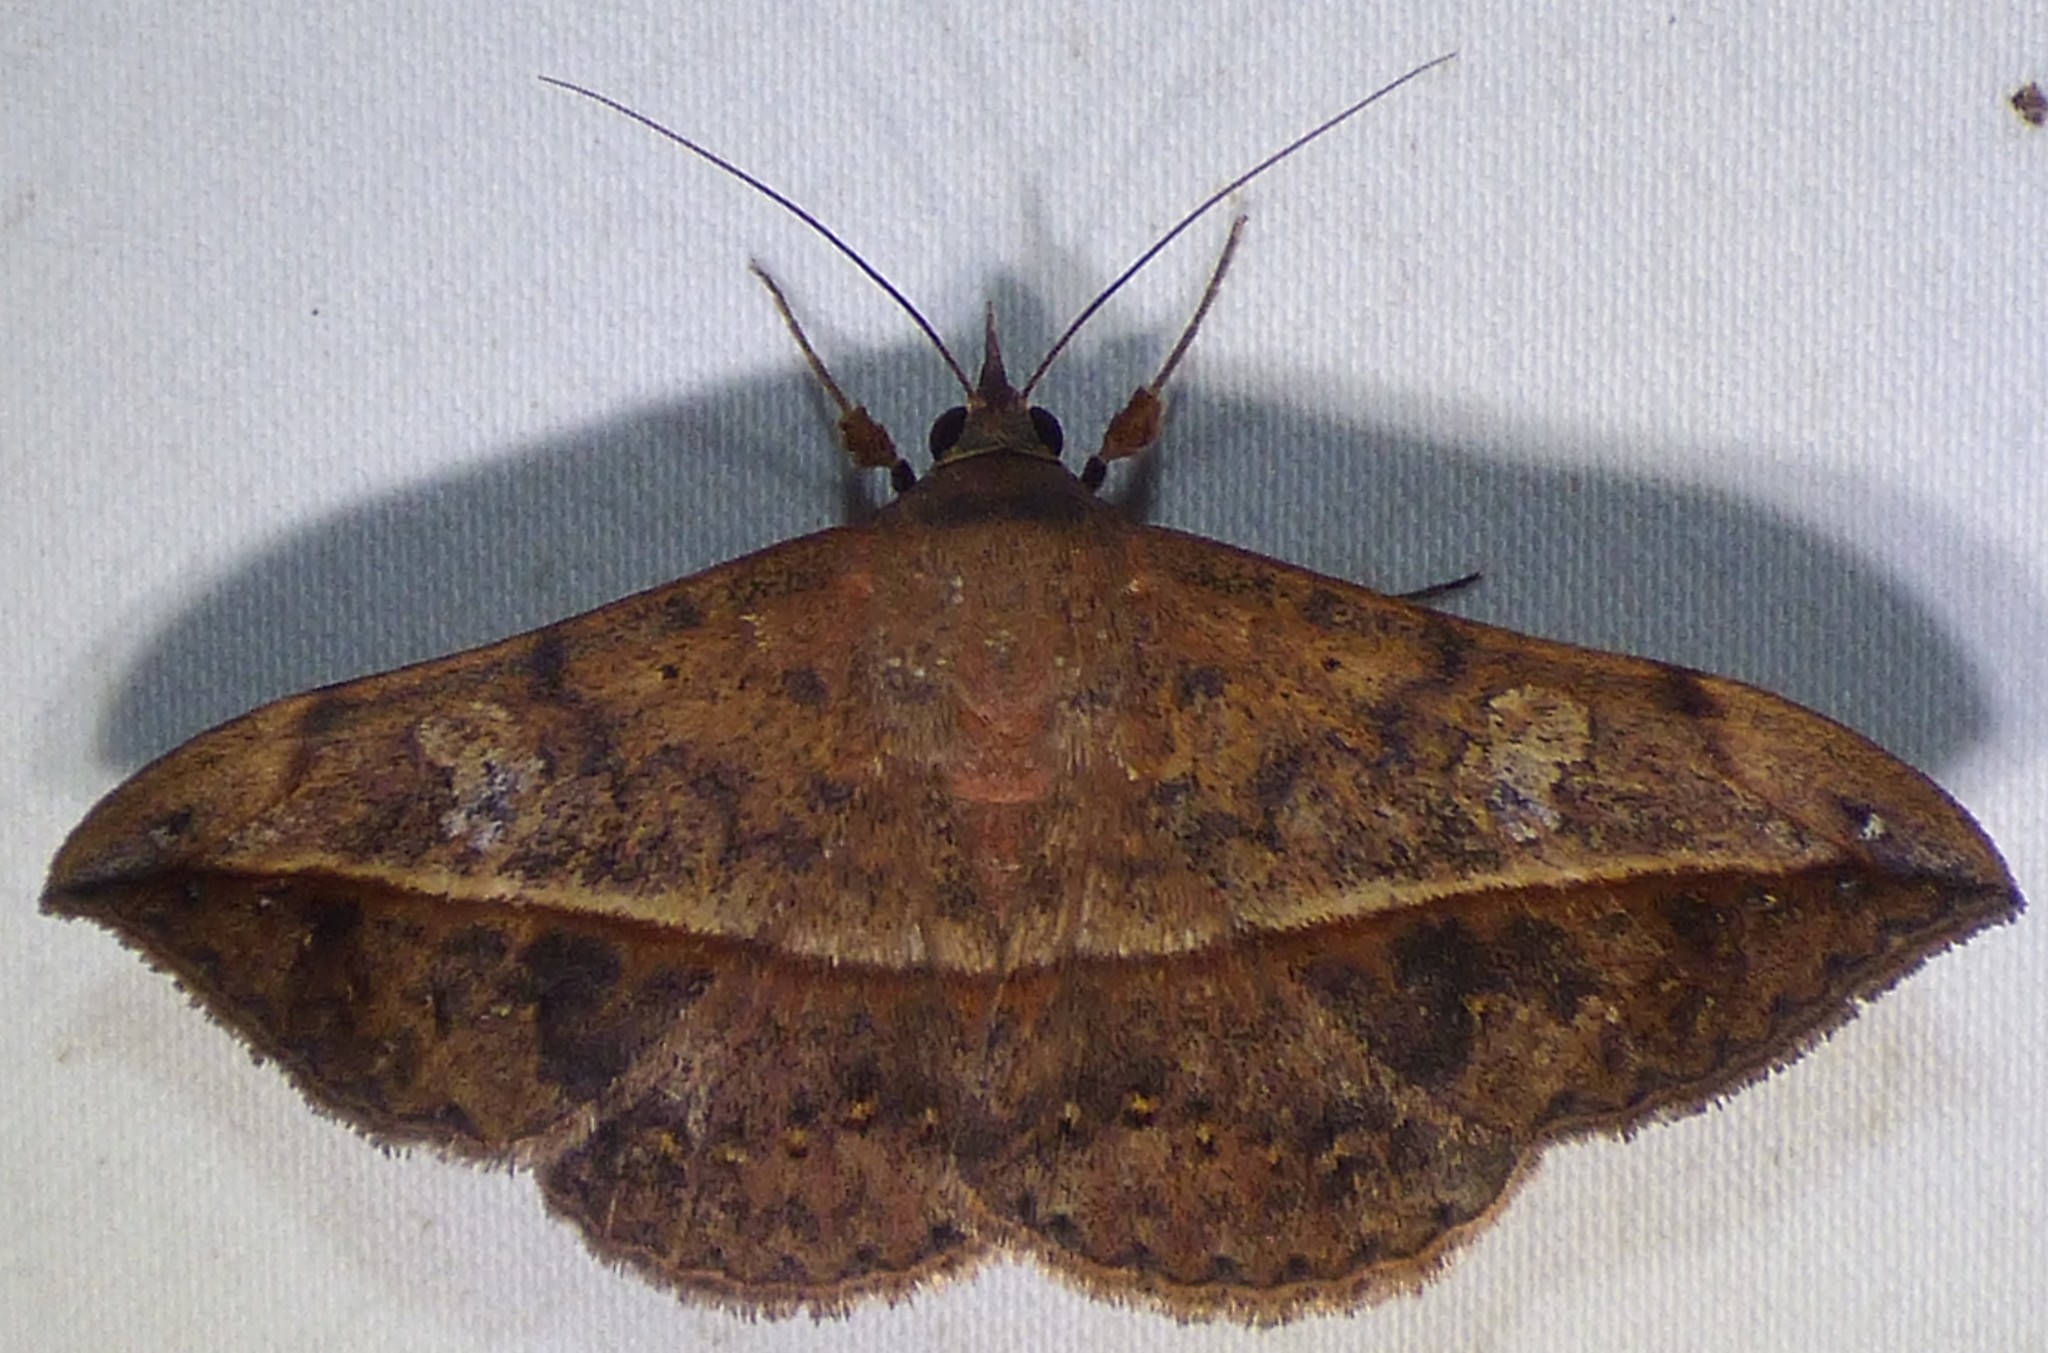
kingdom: Animalia
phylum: Arthropoda
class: Insecta
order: Lepidoptera
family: Erebidae
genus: Anticarsia
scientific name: Anticarsia gemmatalis
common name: Cutworm moth
